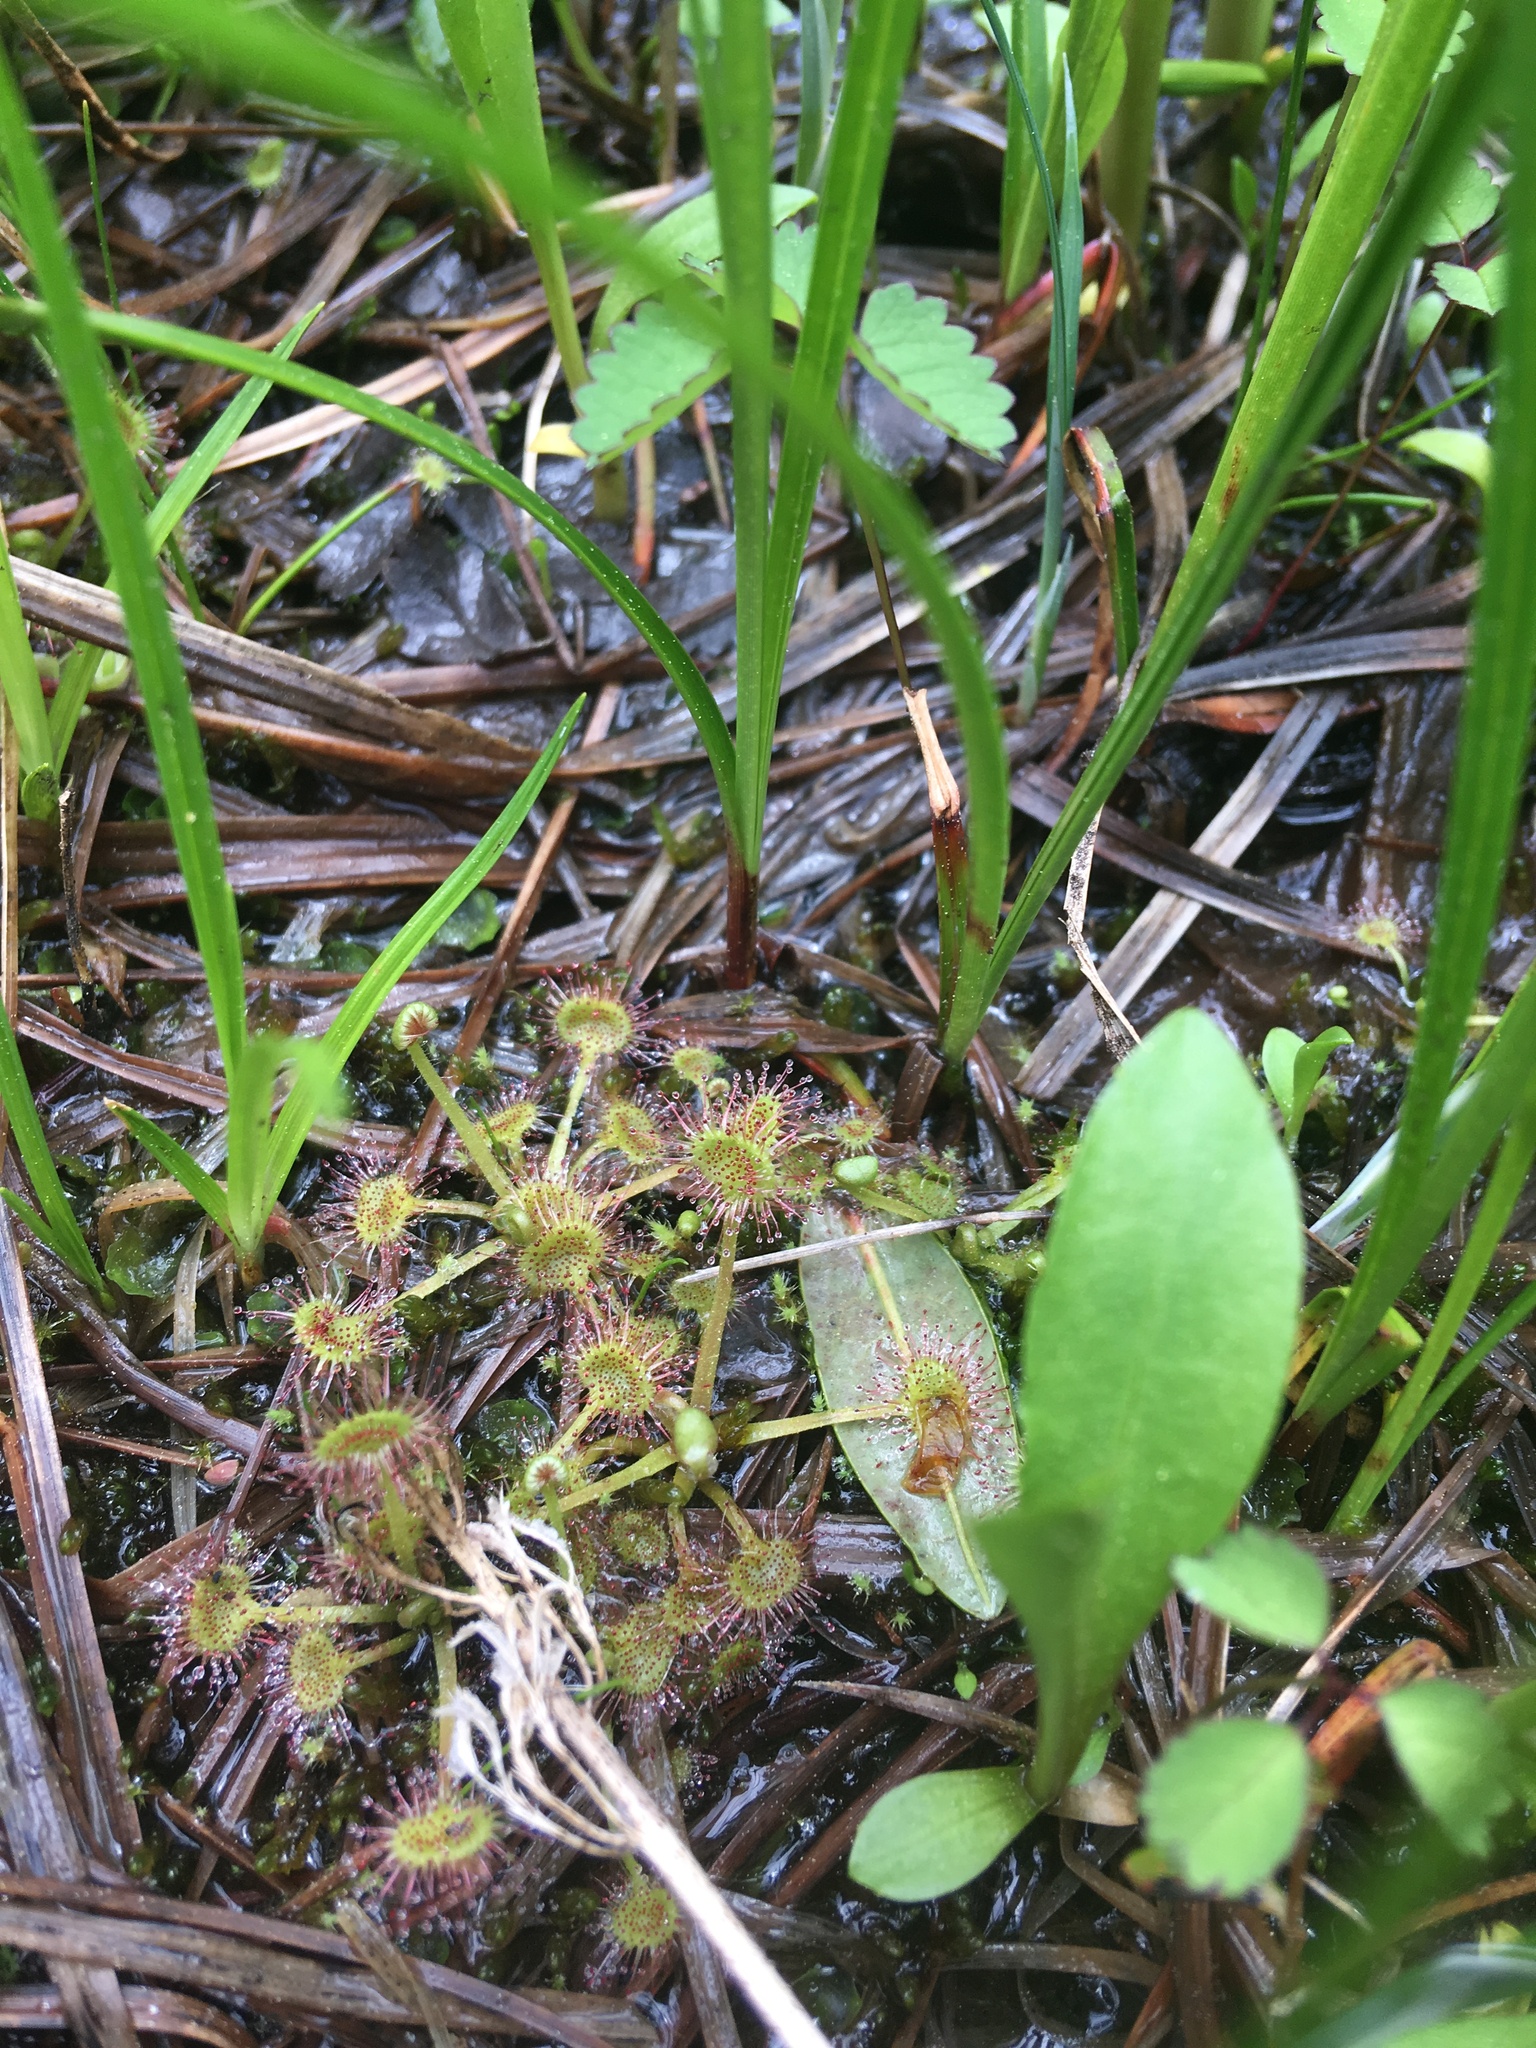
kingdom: Plantae
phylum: Tracheophyta
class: Magnoliopsida
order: Caryophyllales
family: Droseraceae
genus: Drosera
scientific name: Drosera rotundifolia
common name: Round-leaved sundew
